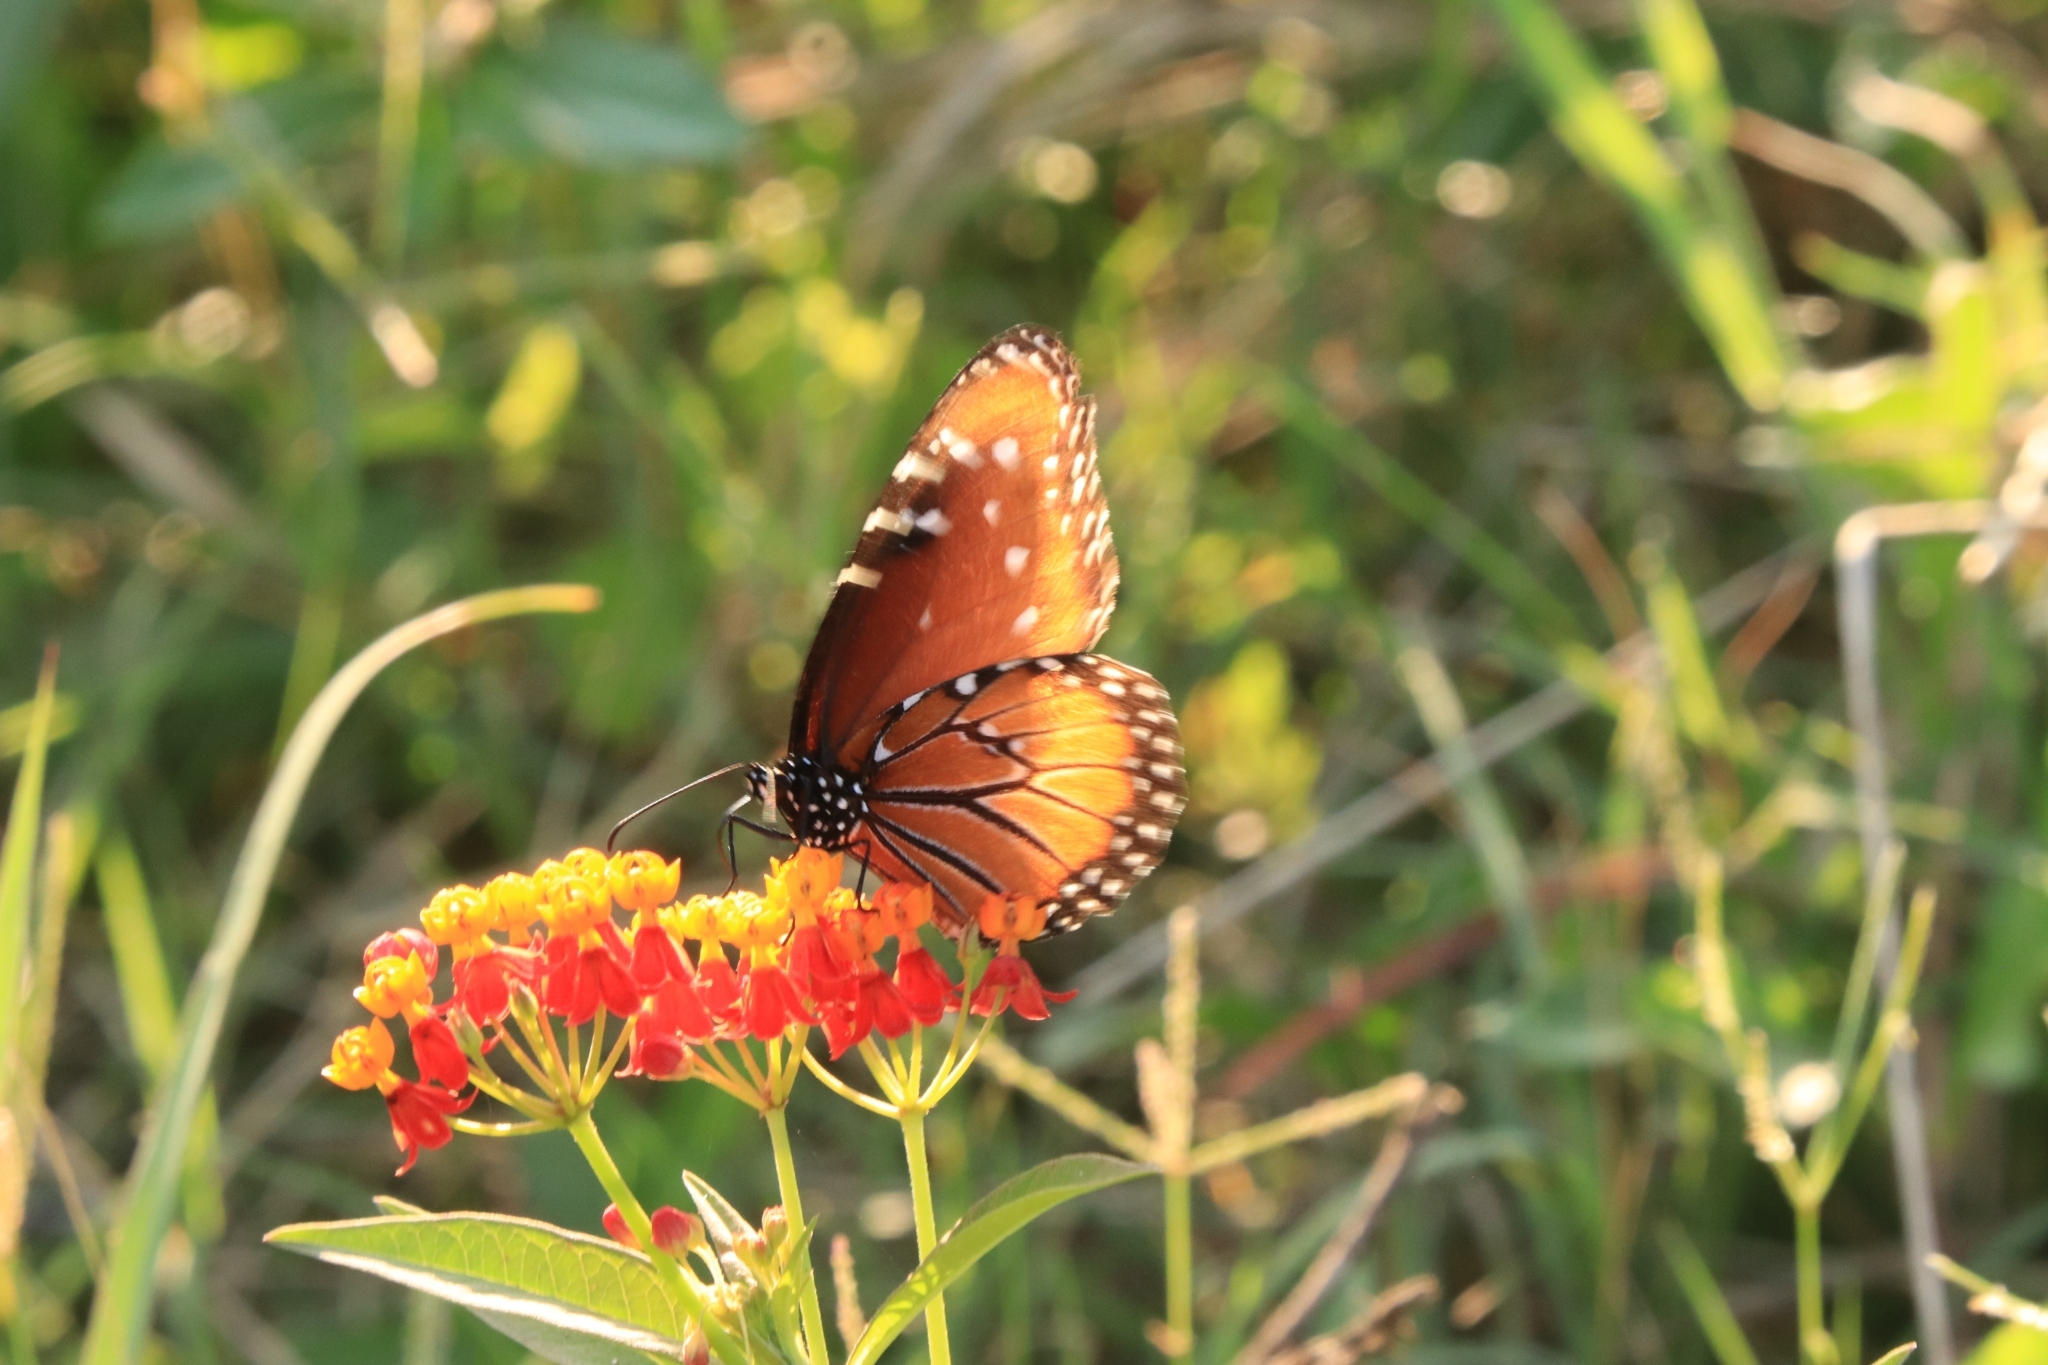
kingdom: Animalia
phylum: Arthropoda
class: Insecta
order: Lepidoptera
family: Nymphalidae
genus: Danaus
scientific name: Danaus gilippus
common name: Queen
